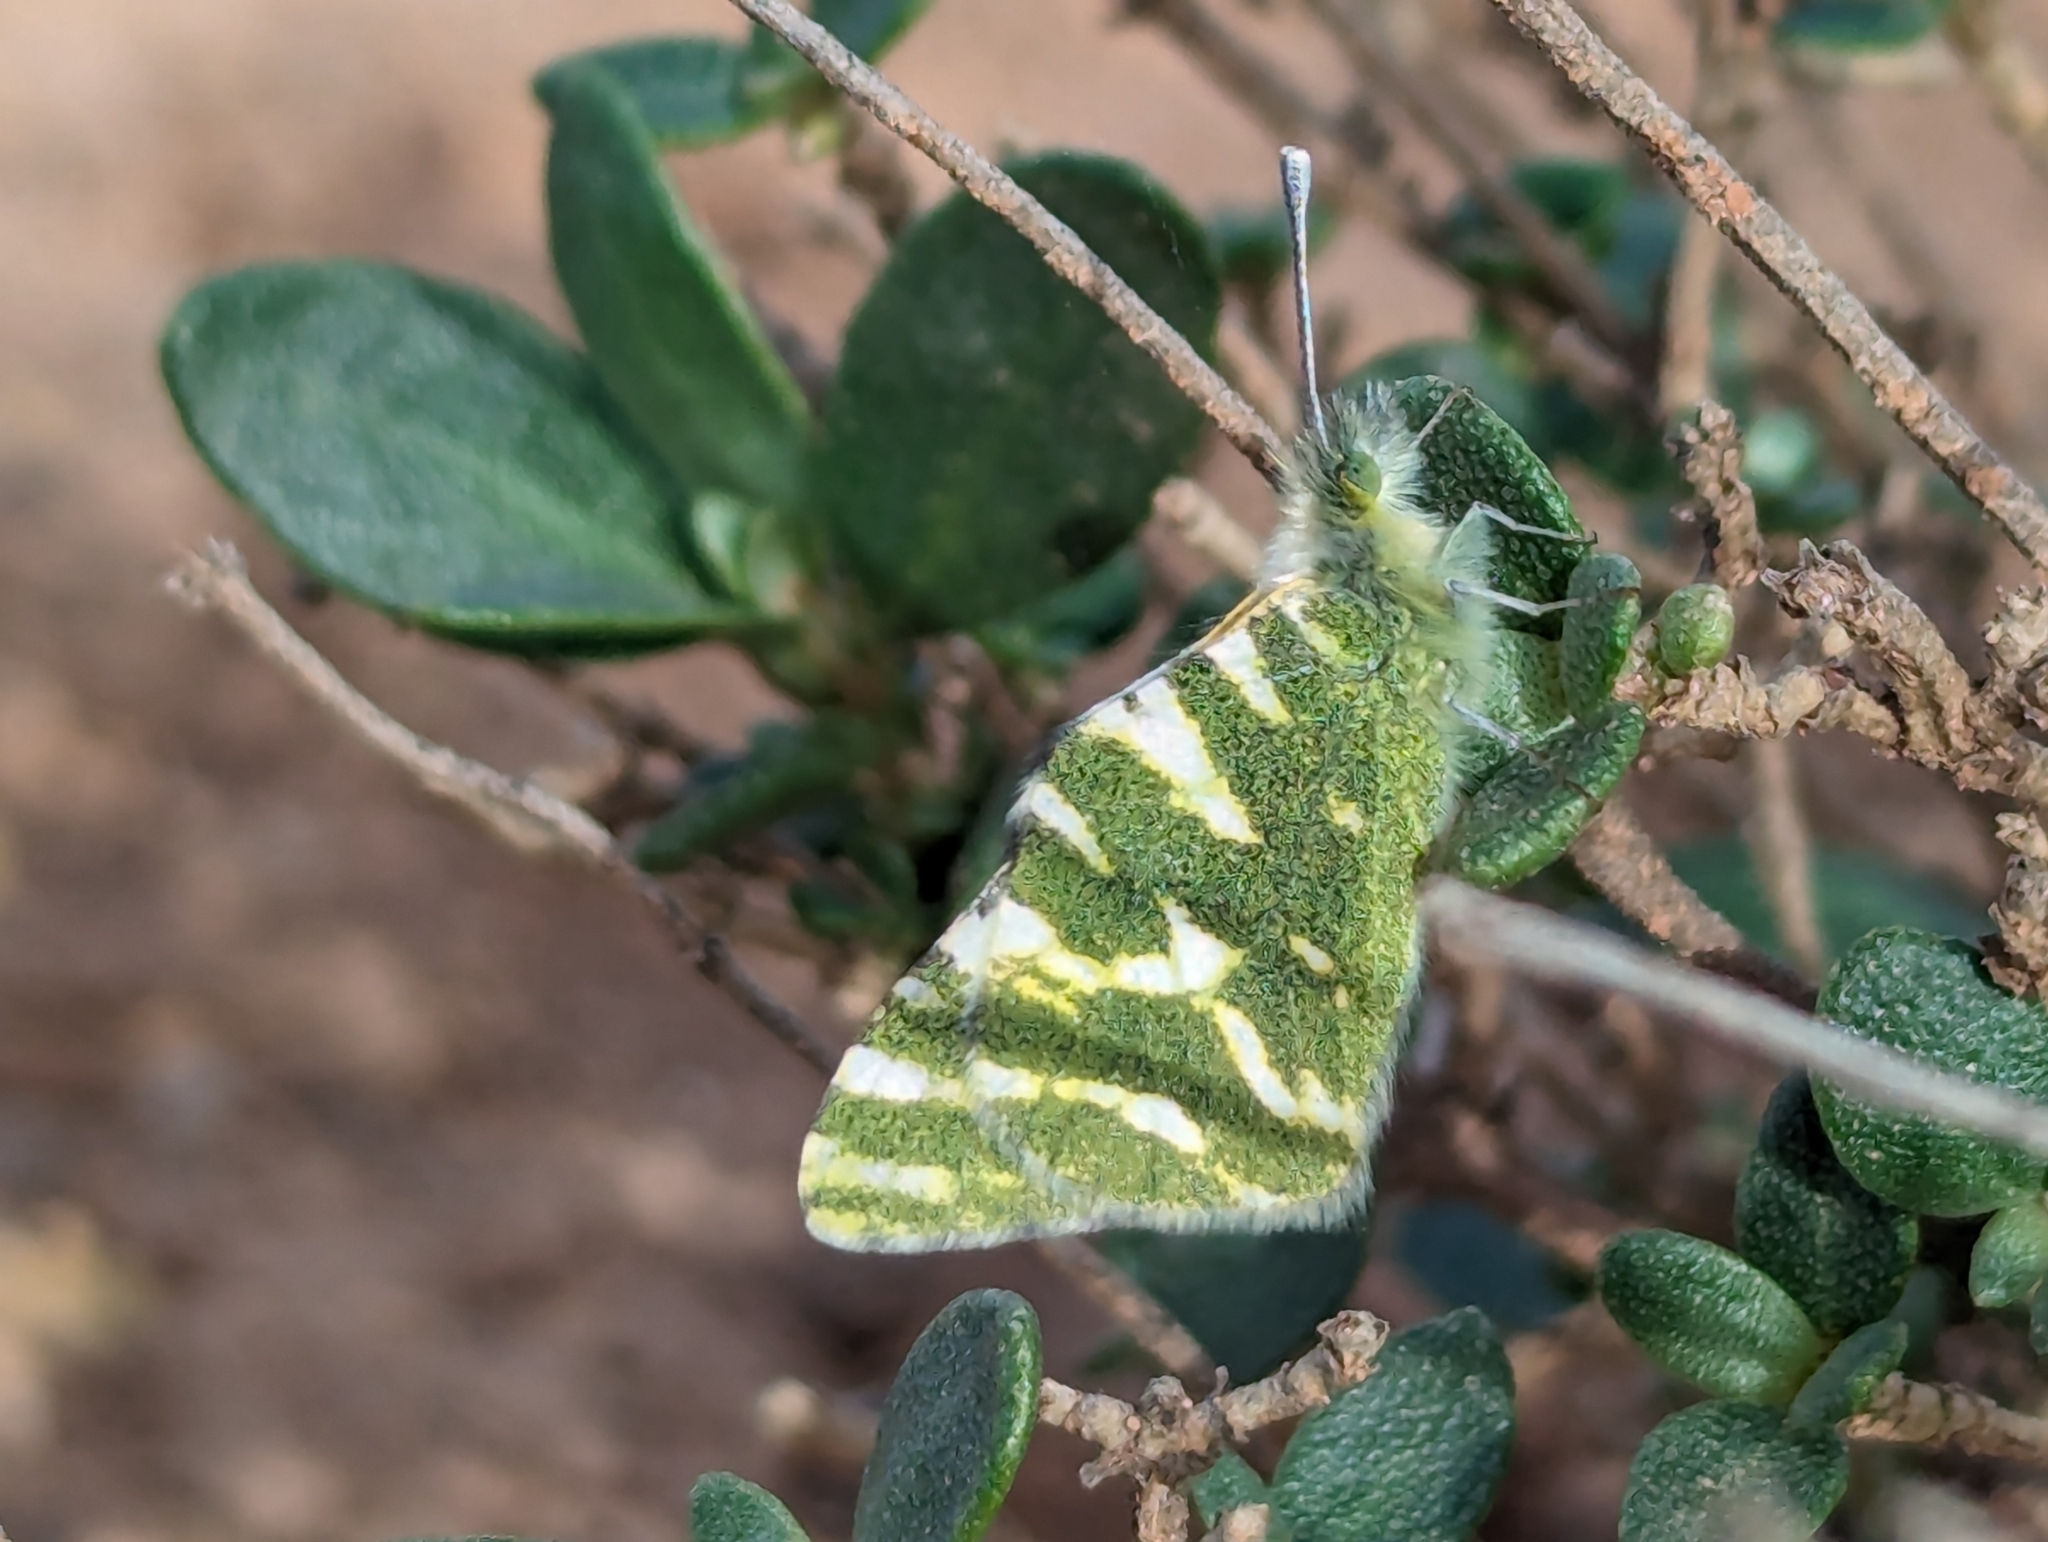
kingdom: Animalia
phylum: Arthropoda
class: Insecta
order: Lepidoptera
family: Pieridae
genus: Euchloe
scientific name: Euchloe belemia
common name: Green-striped white
